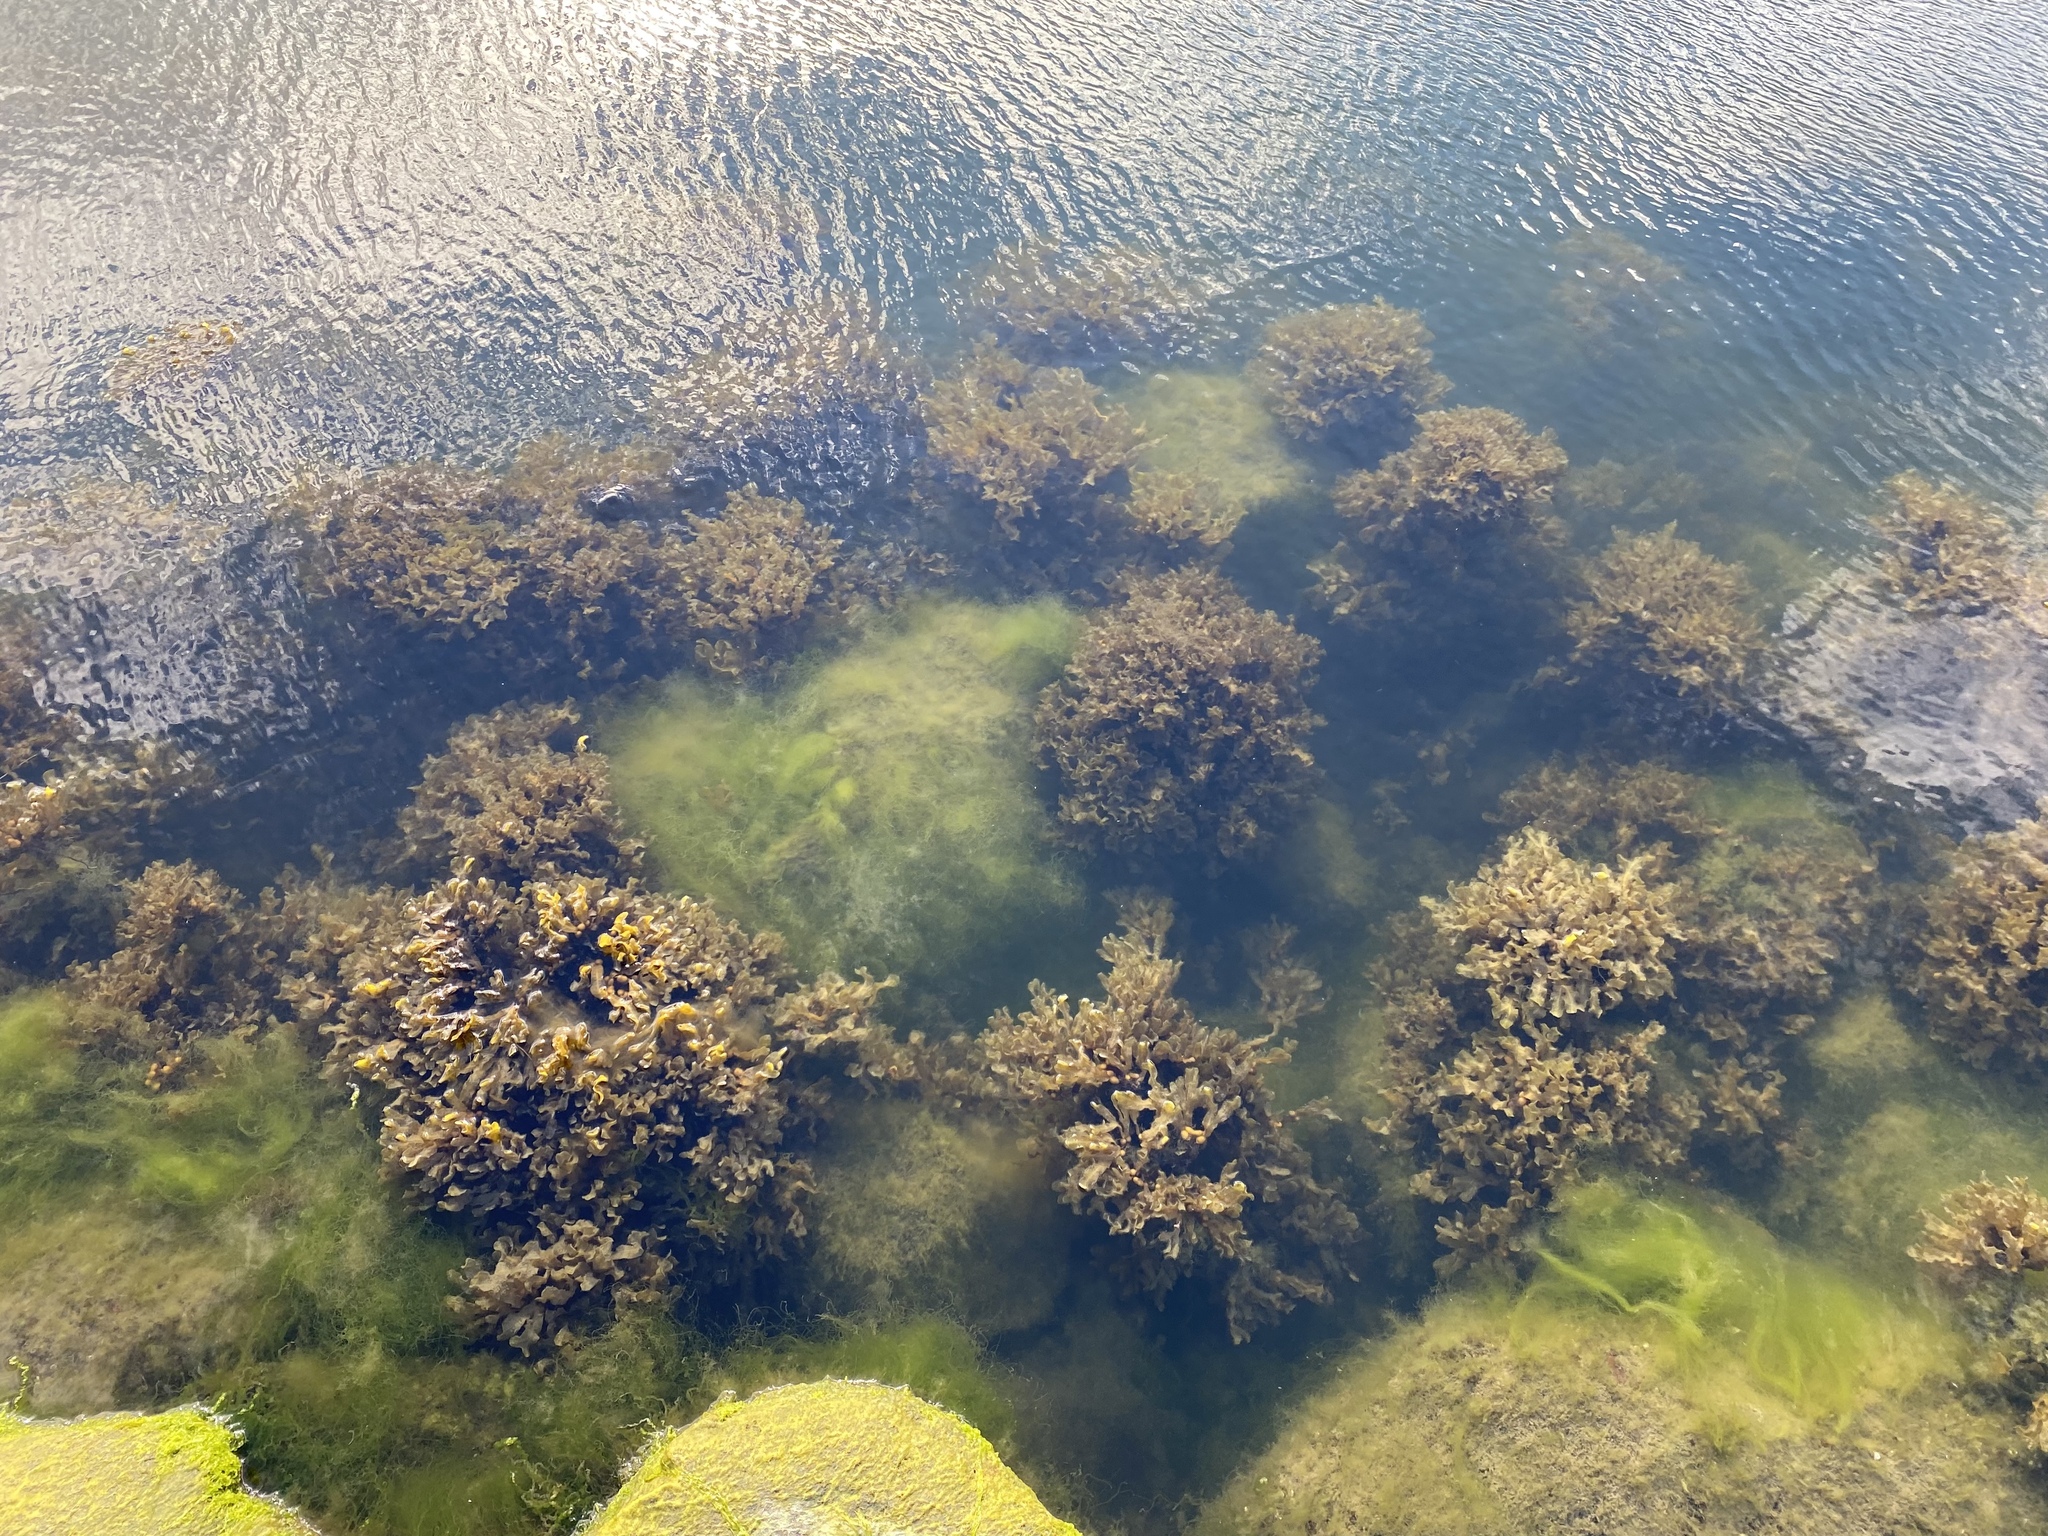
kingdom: Chromista
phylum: Ochrophyta
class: Phaeophyceae
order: Fucales
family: Fucaceae
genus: Fucus
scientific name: Fucus vesiculosus
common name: Bladder wrack
